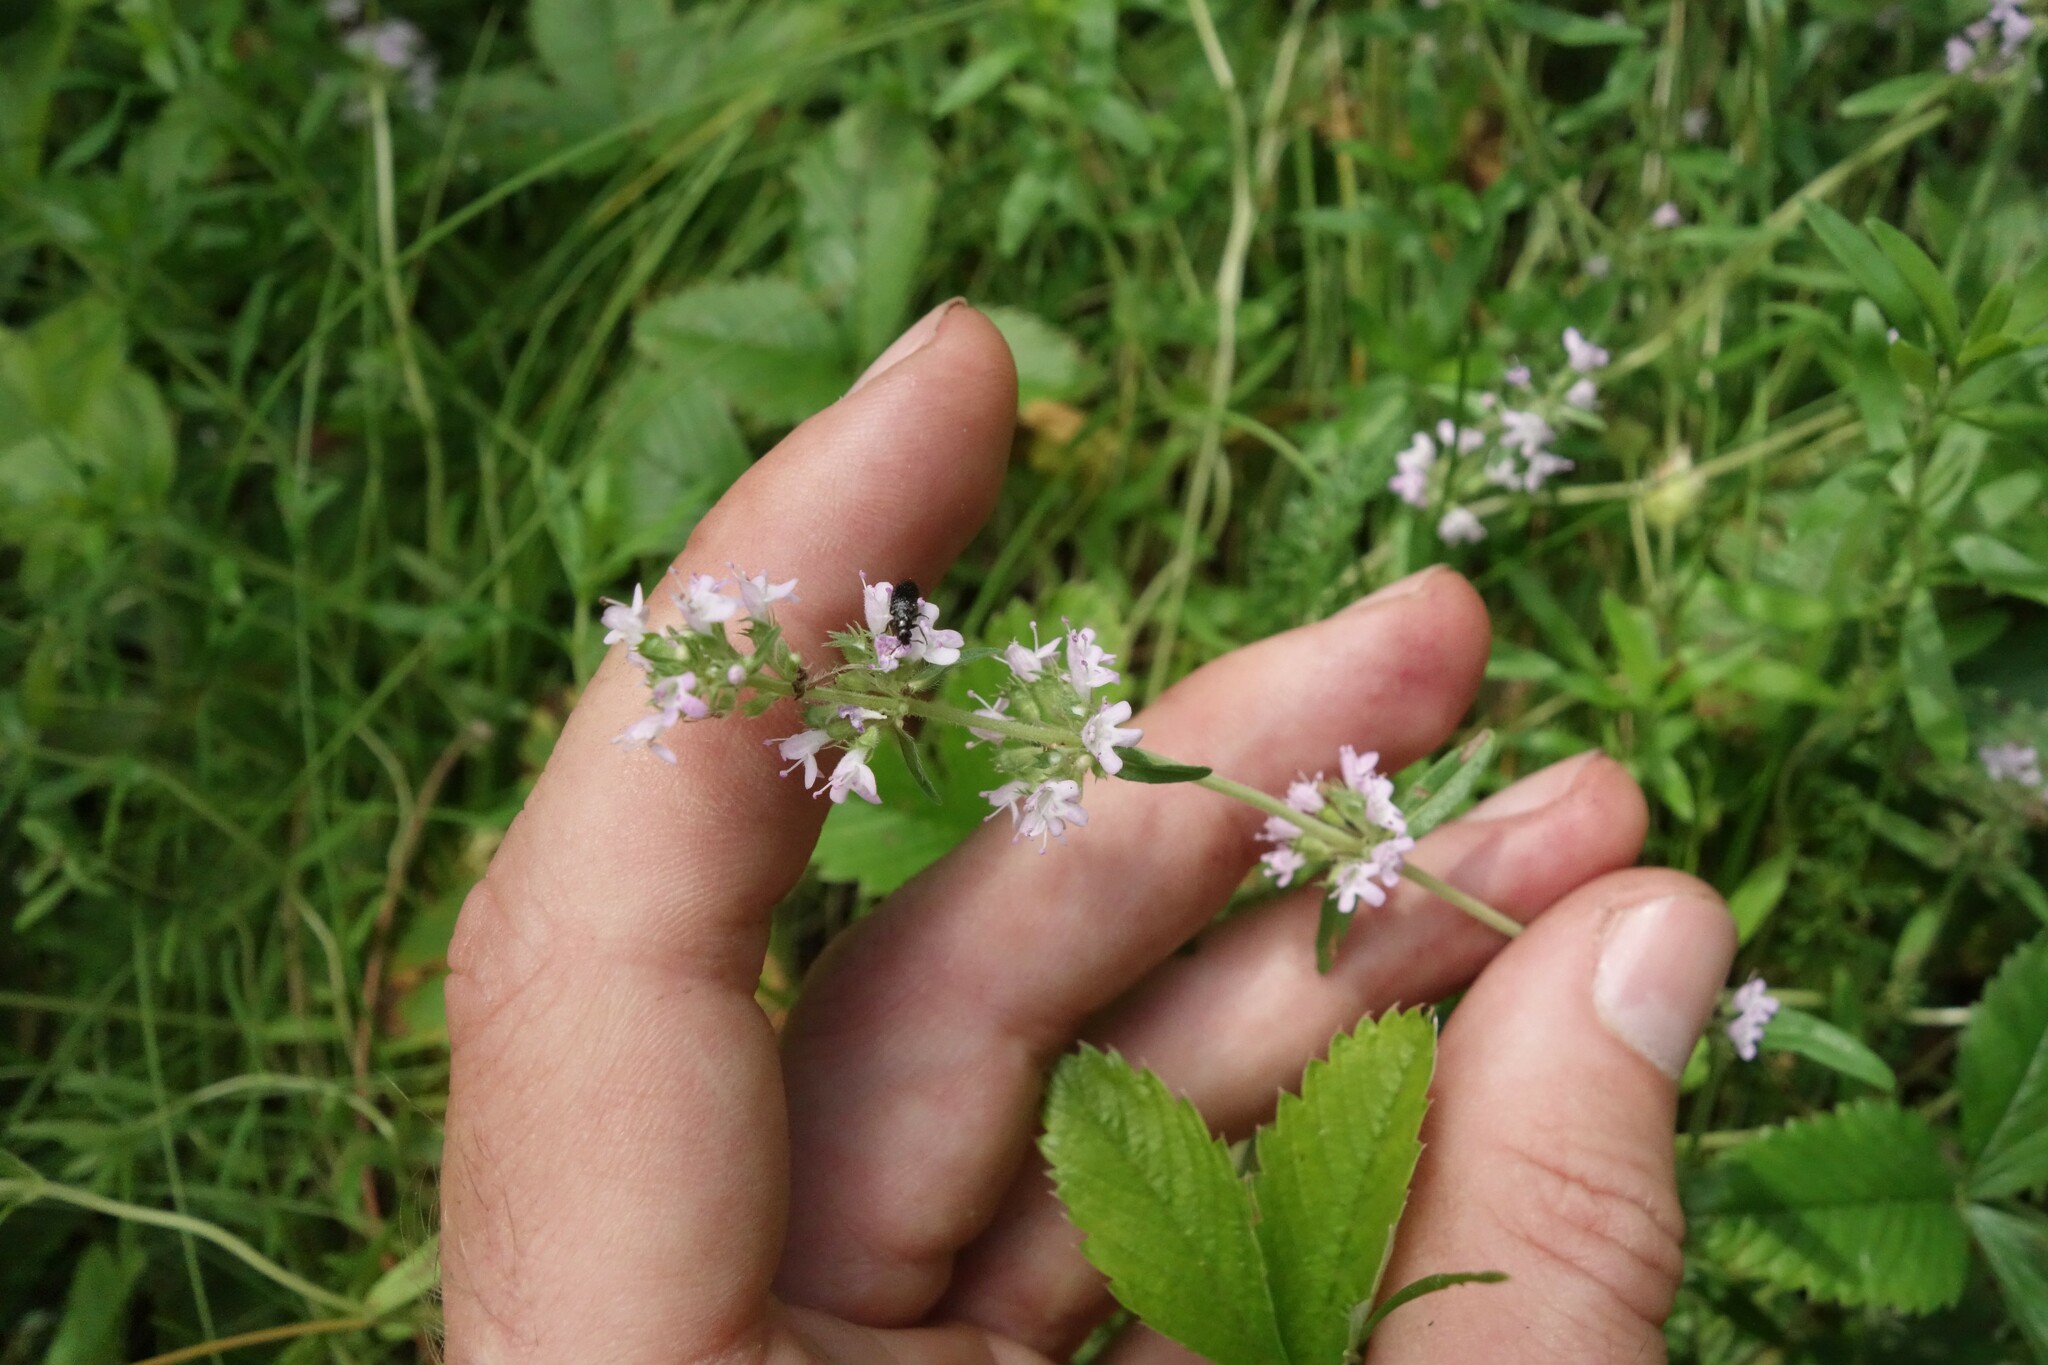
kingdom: Plantae
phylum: Tracheophyta
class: Magnoliopsida
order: Lamiales
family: Lamiaceae
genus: Thymus
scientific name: Thymus pannonicus
